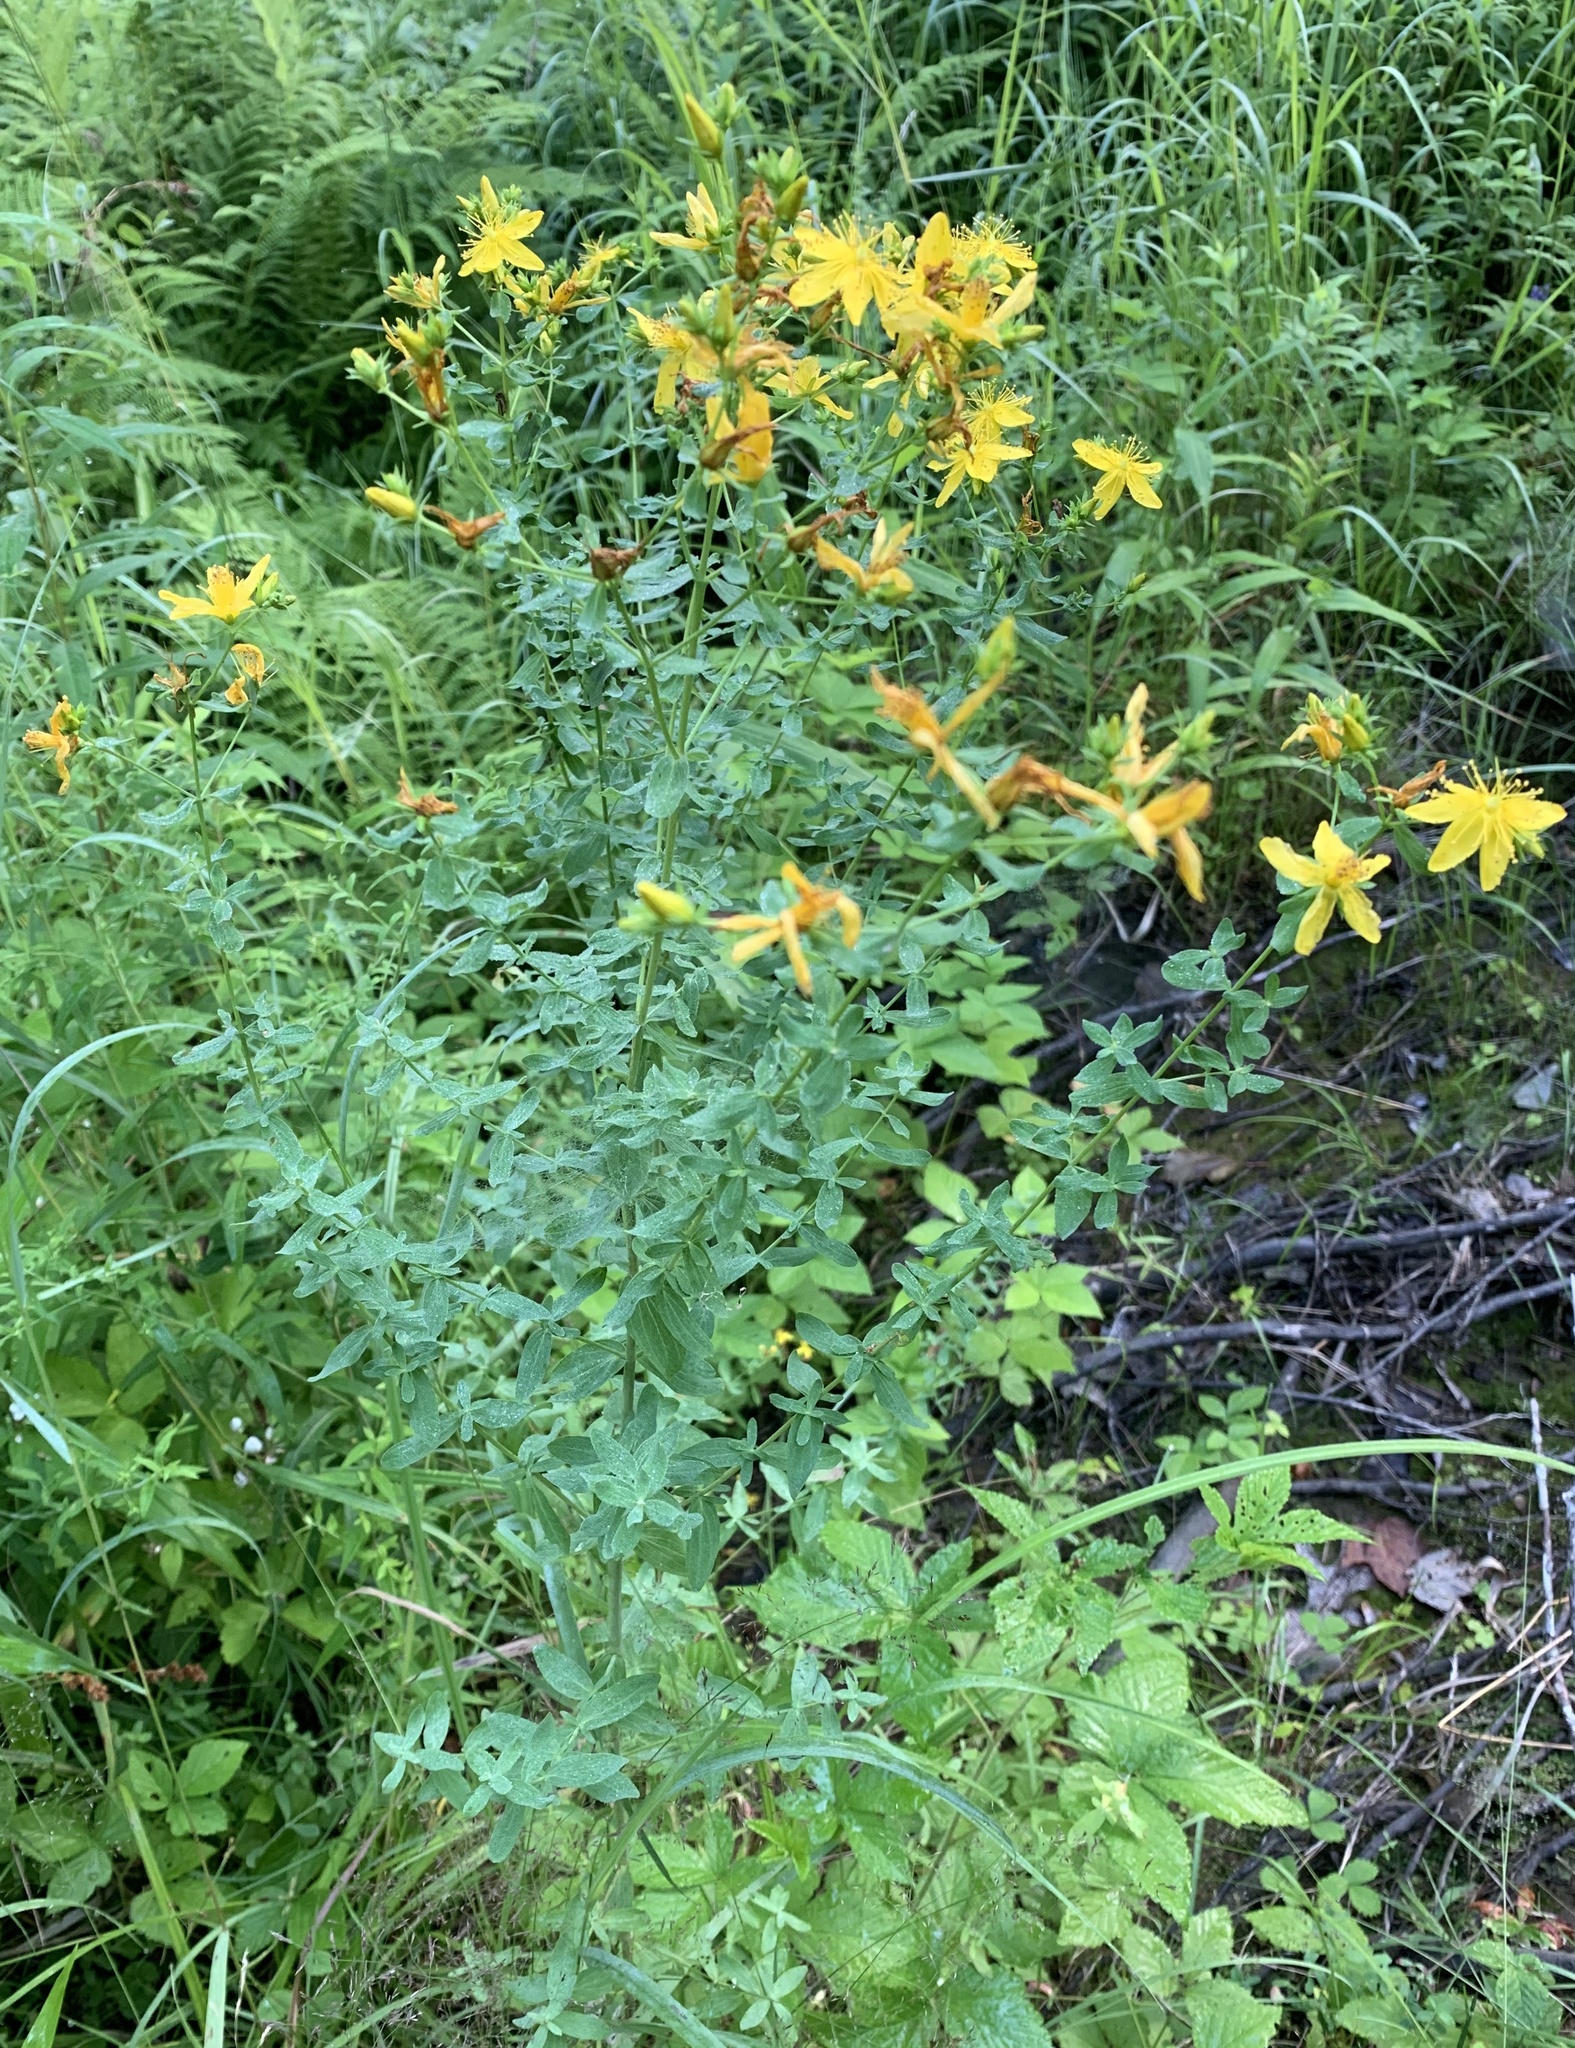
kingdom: Plantae
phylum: Tracheophyta
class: Magnoliopsida
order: Malpighiales
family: Hypericaceae
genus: Hypericum
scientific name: Hypericum perforatum
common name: Common st. johnswort
